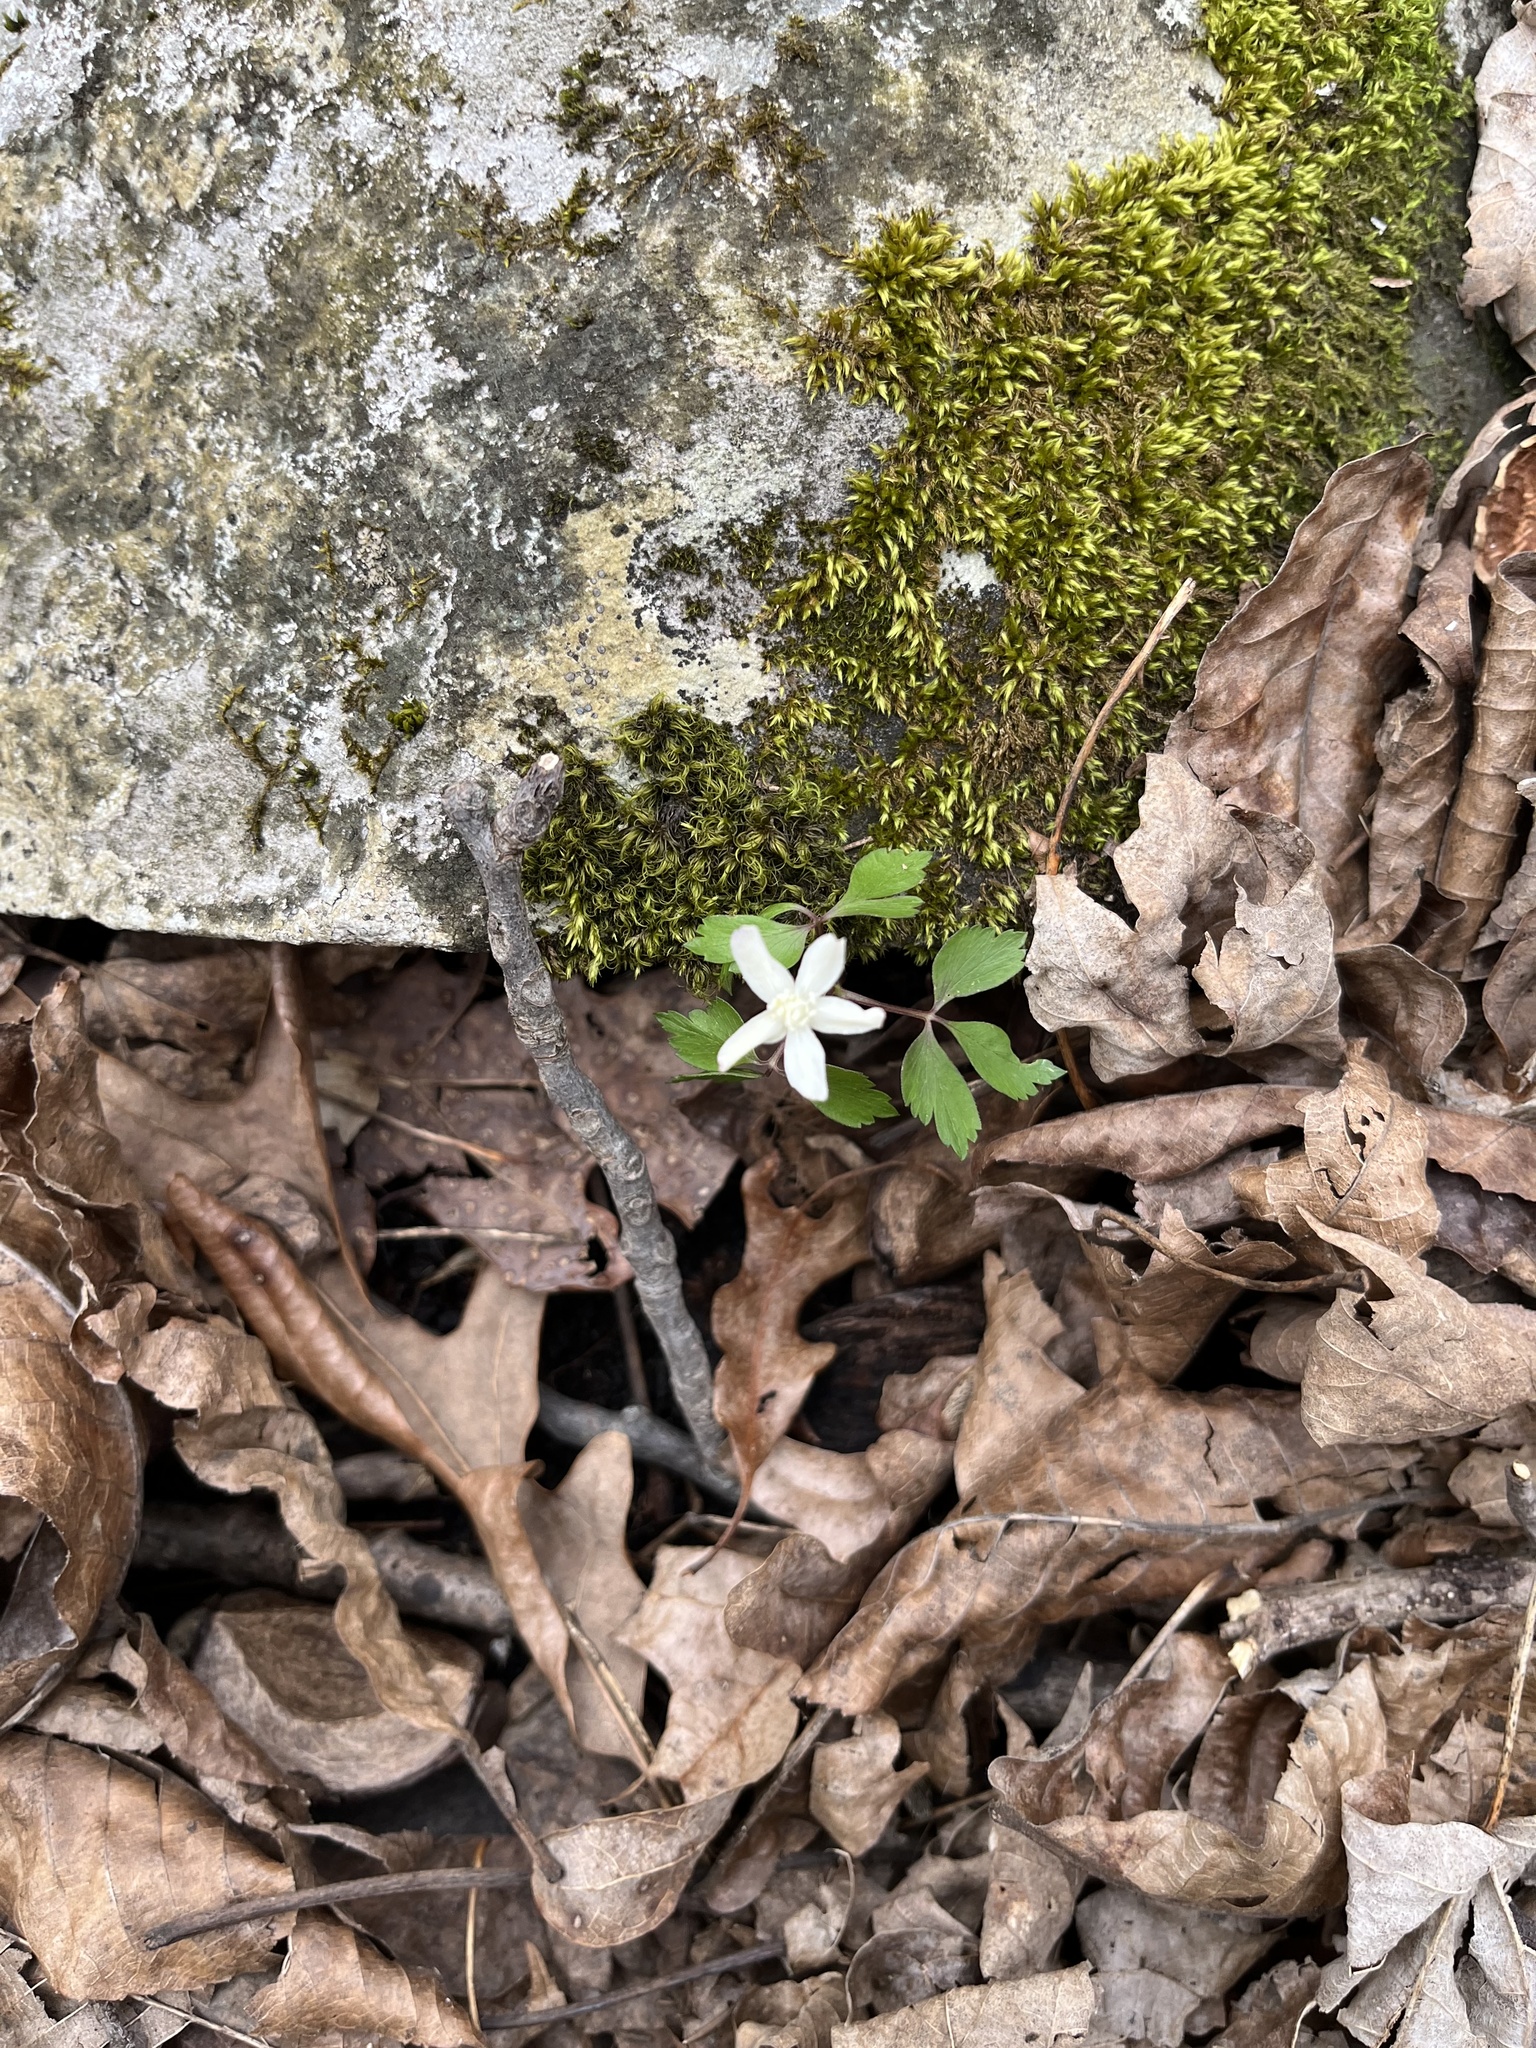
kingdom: Plantae
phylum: Tracheophyta
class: Magnoliopsida
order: Ranunculales
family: Ranunculaceae
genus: Anemone
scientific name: Anemone quinquefolia
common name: Wood anemone
